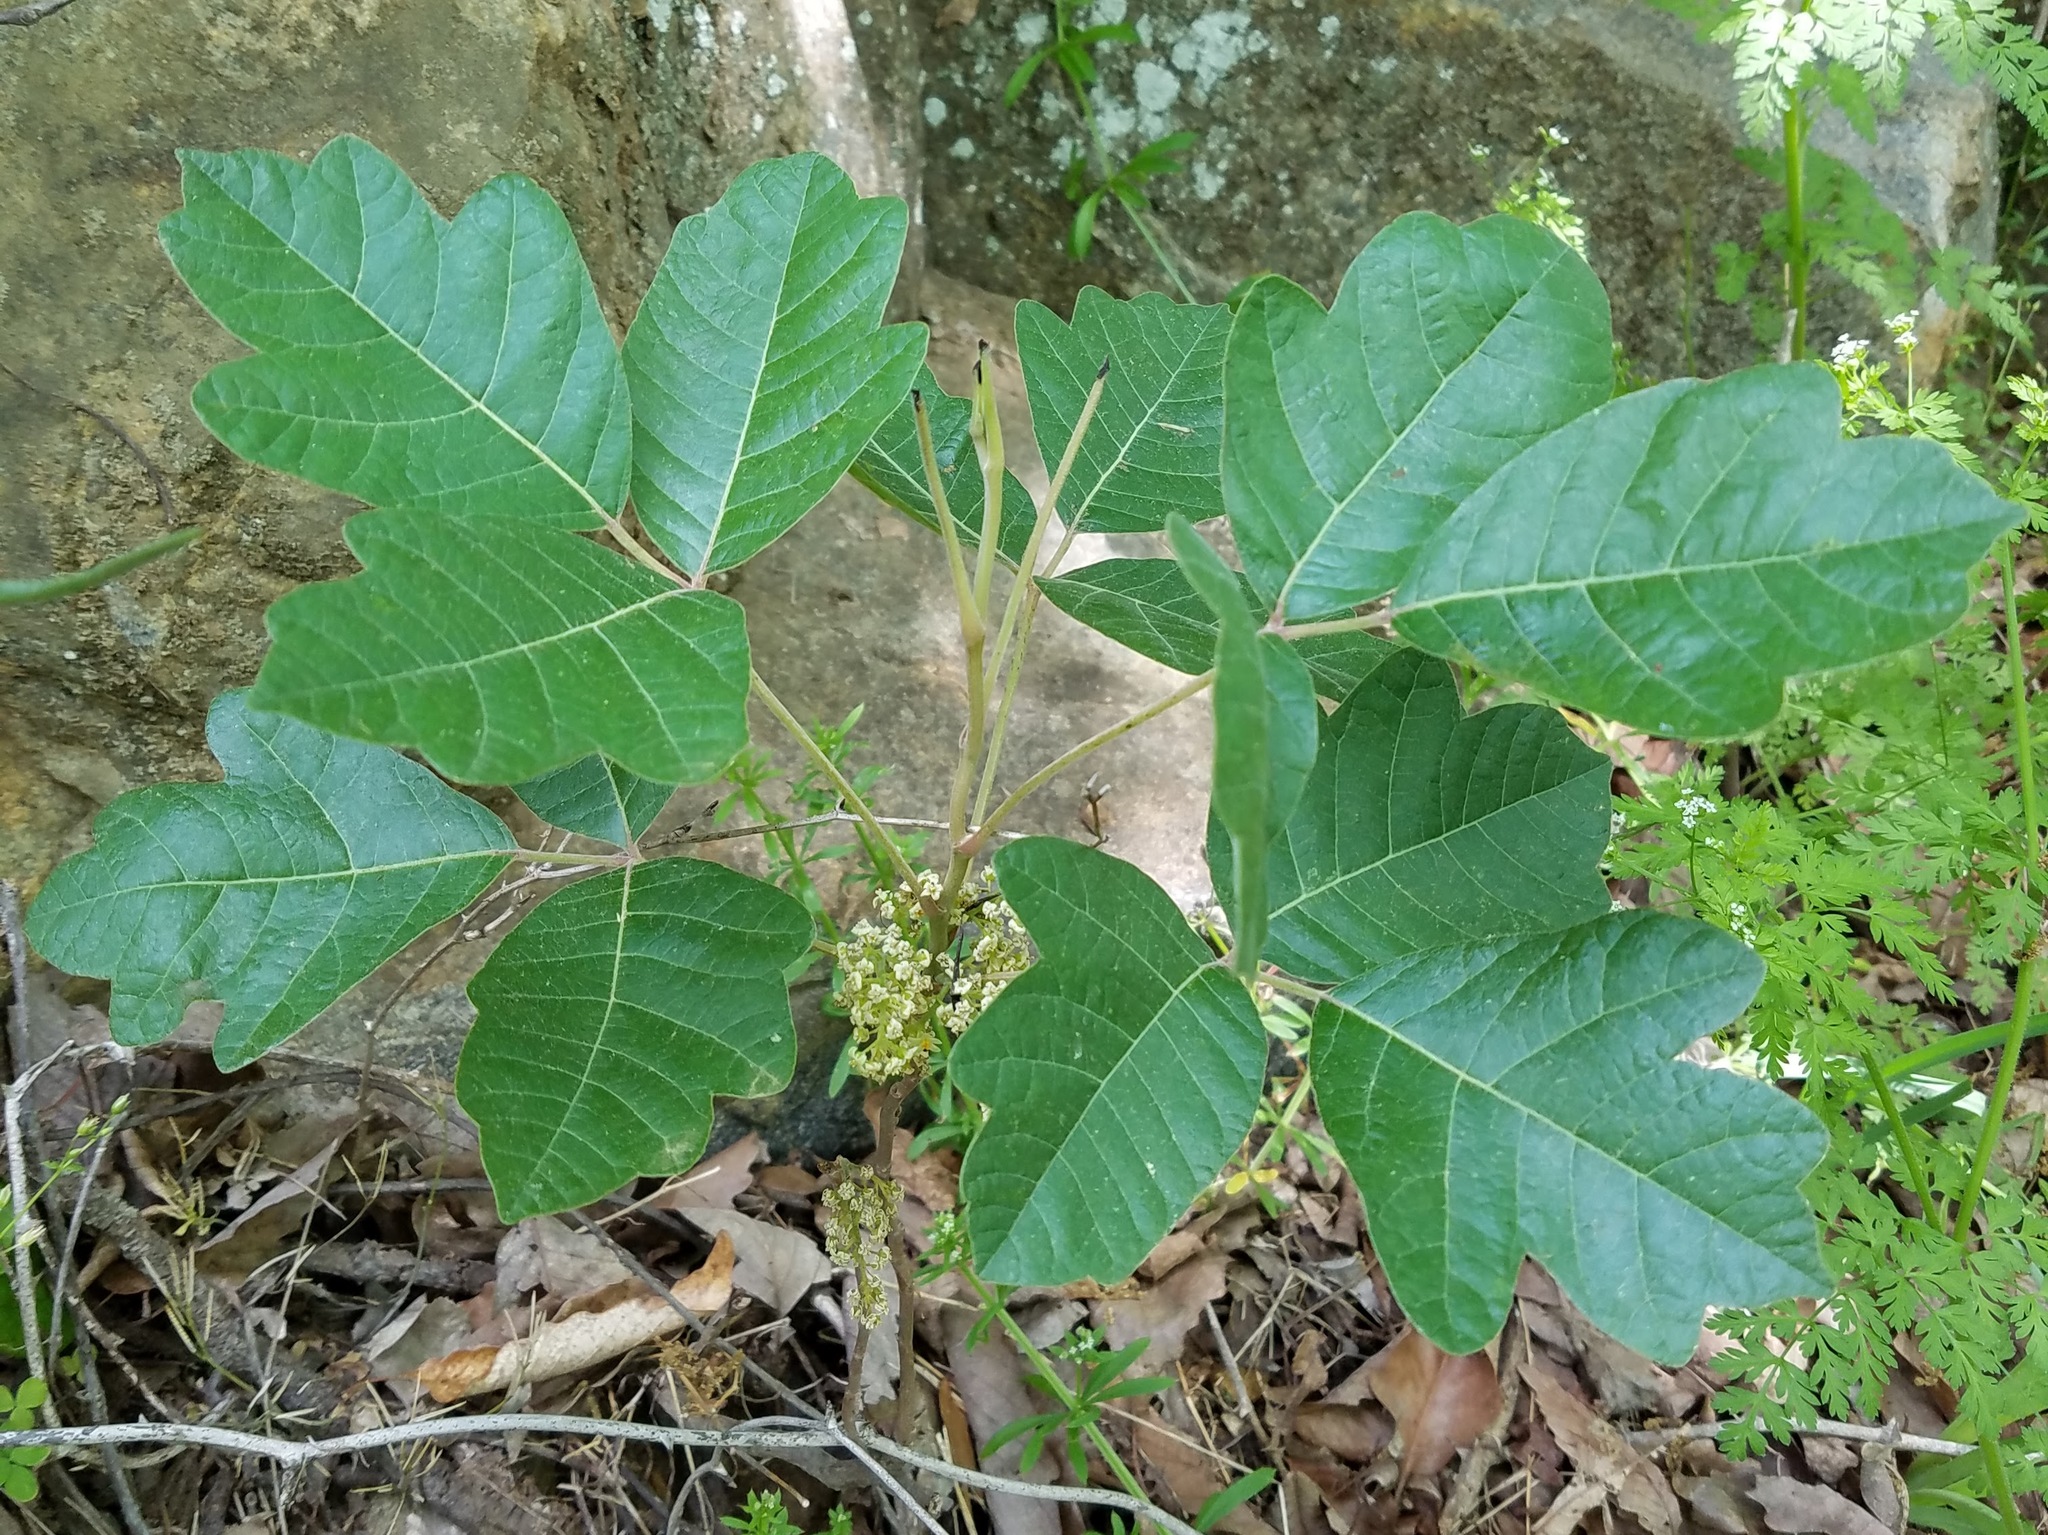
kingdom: Plantae
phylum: Tracheophyta
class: Magnoliopsida
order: Sapindales
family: Anacardiaceae
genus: Toxicodendron
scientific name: Toxicodendron pubescens
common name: Eastern poison-oak
